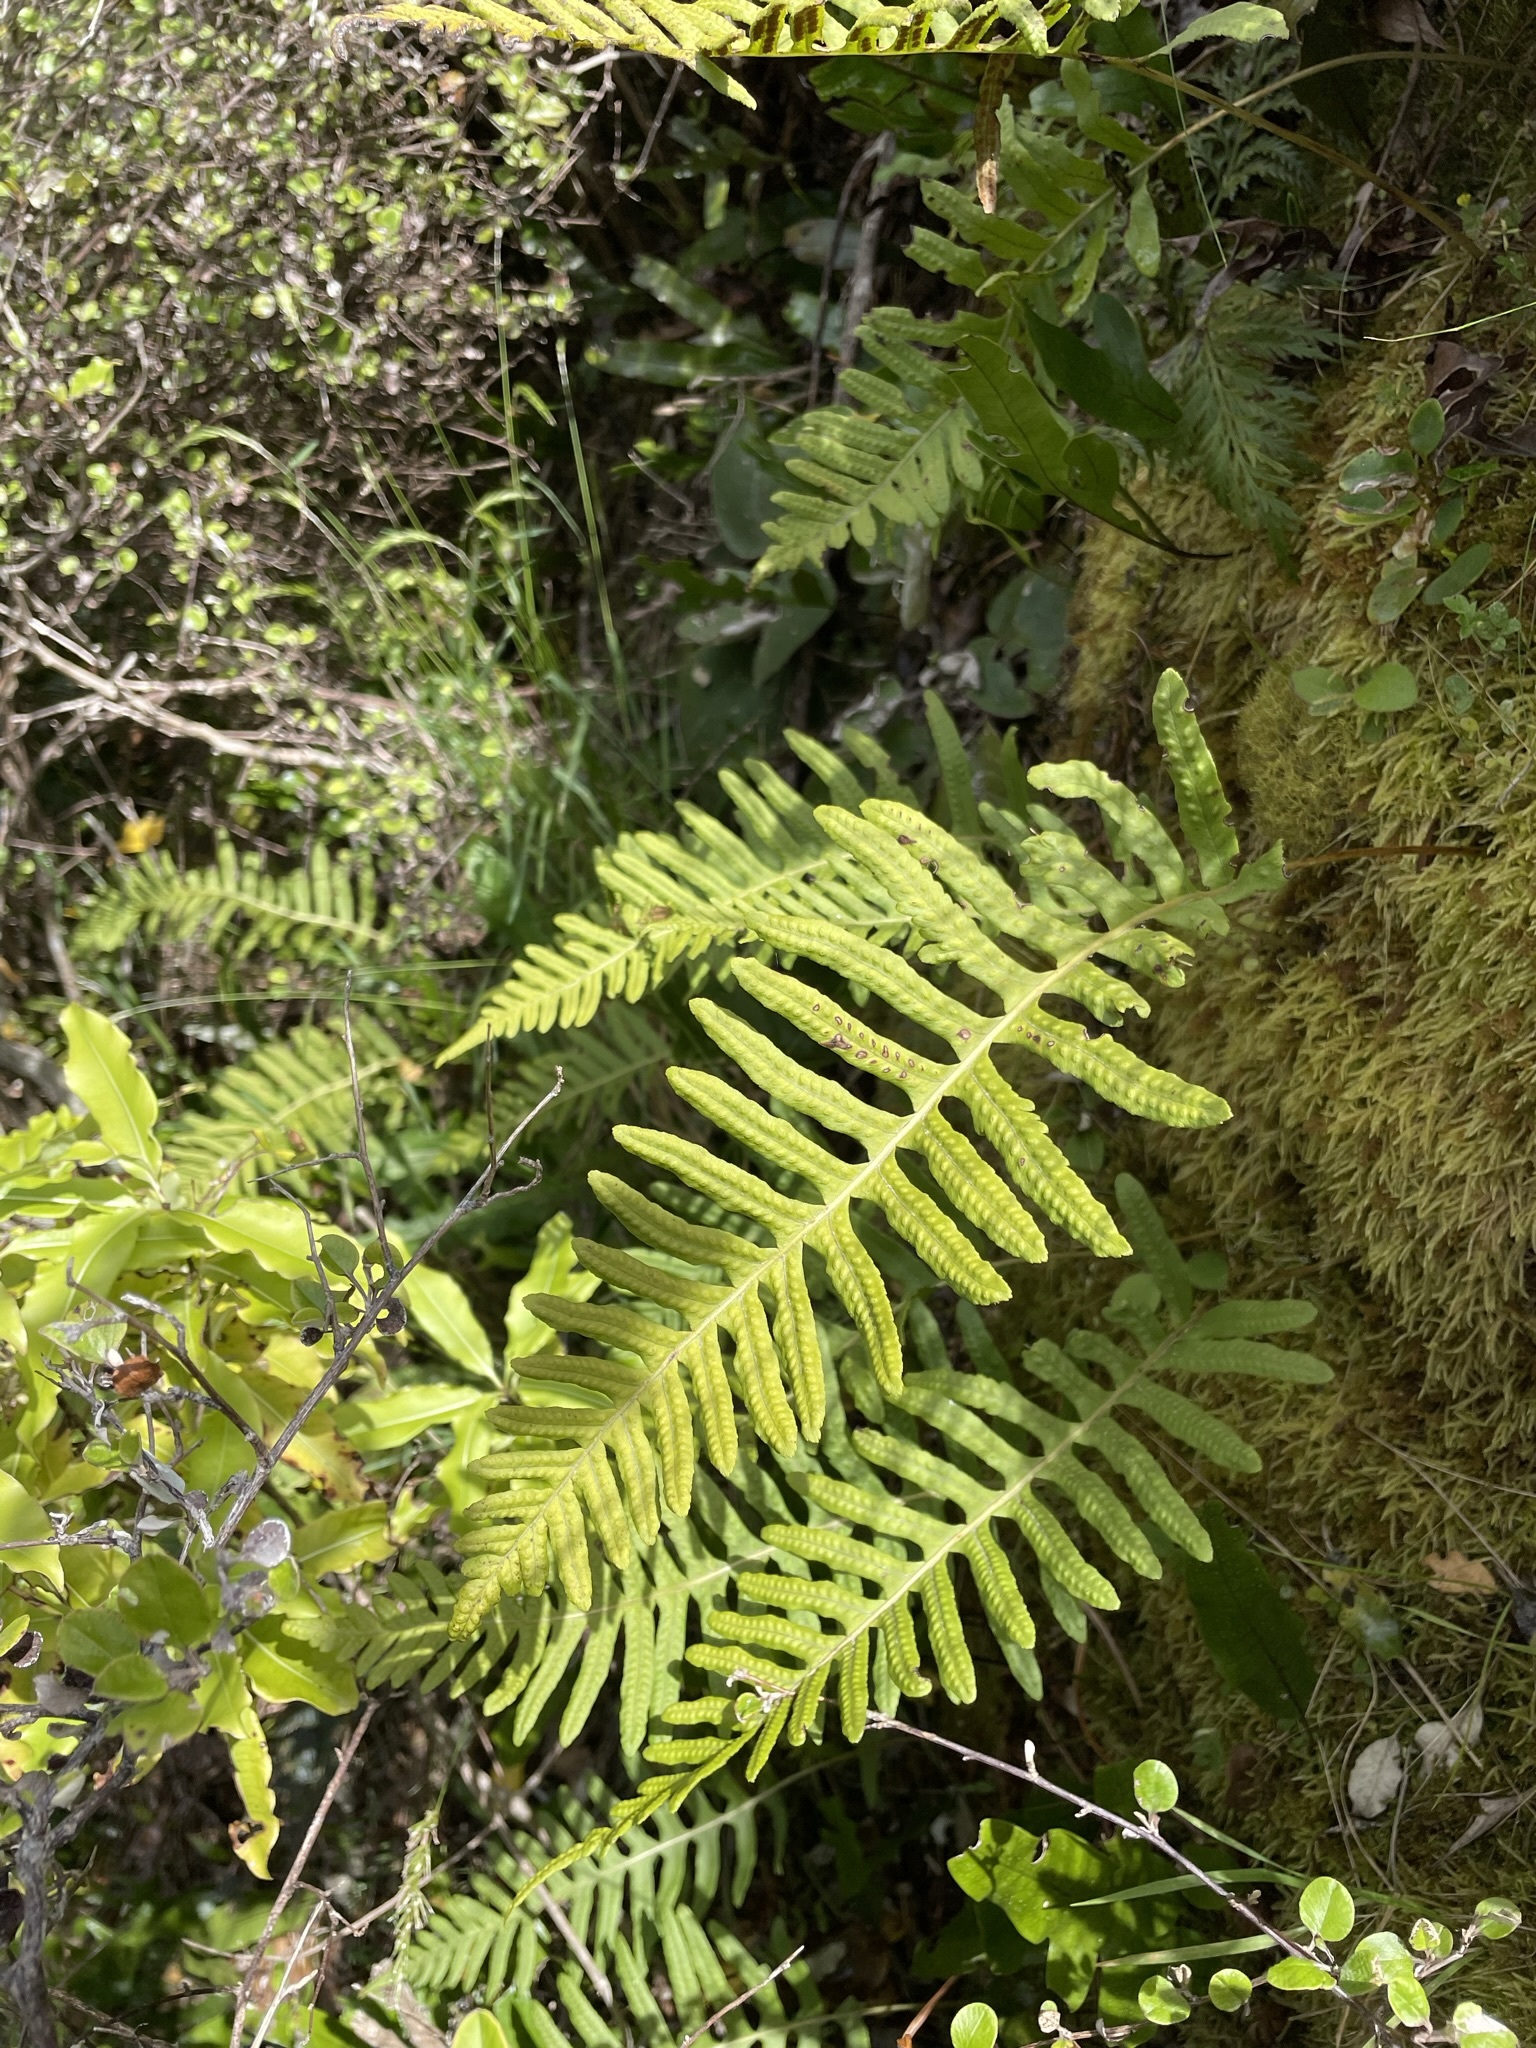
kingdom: Plantae
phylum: Tracheophyta
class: Polypodiopsida
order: Polypodiales
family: Polypodiaceae
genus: Polypodium
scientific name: Polypodium vulgare
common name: Common polypody
